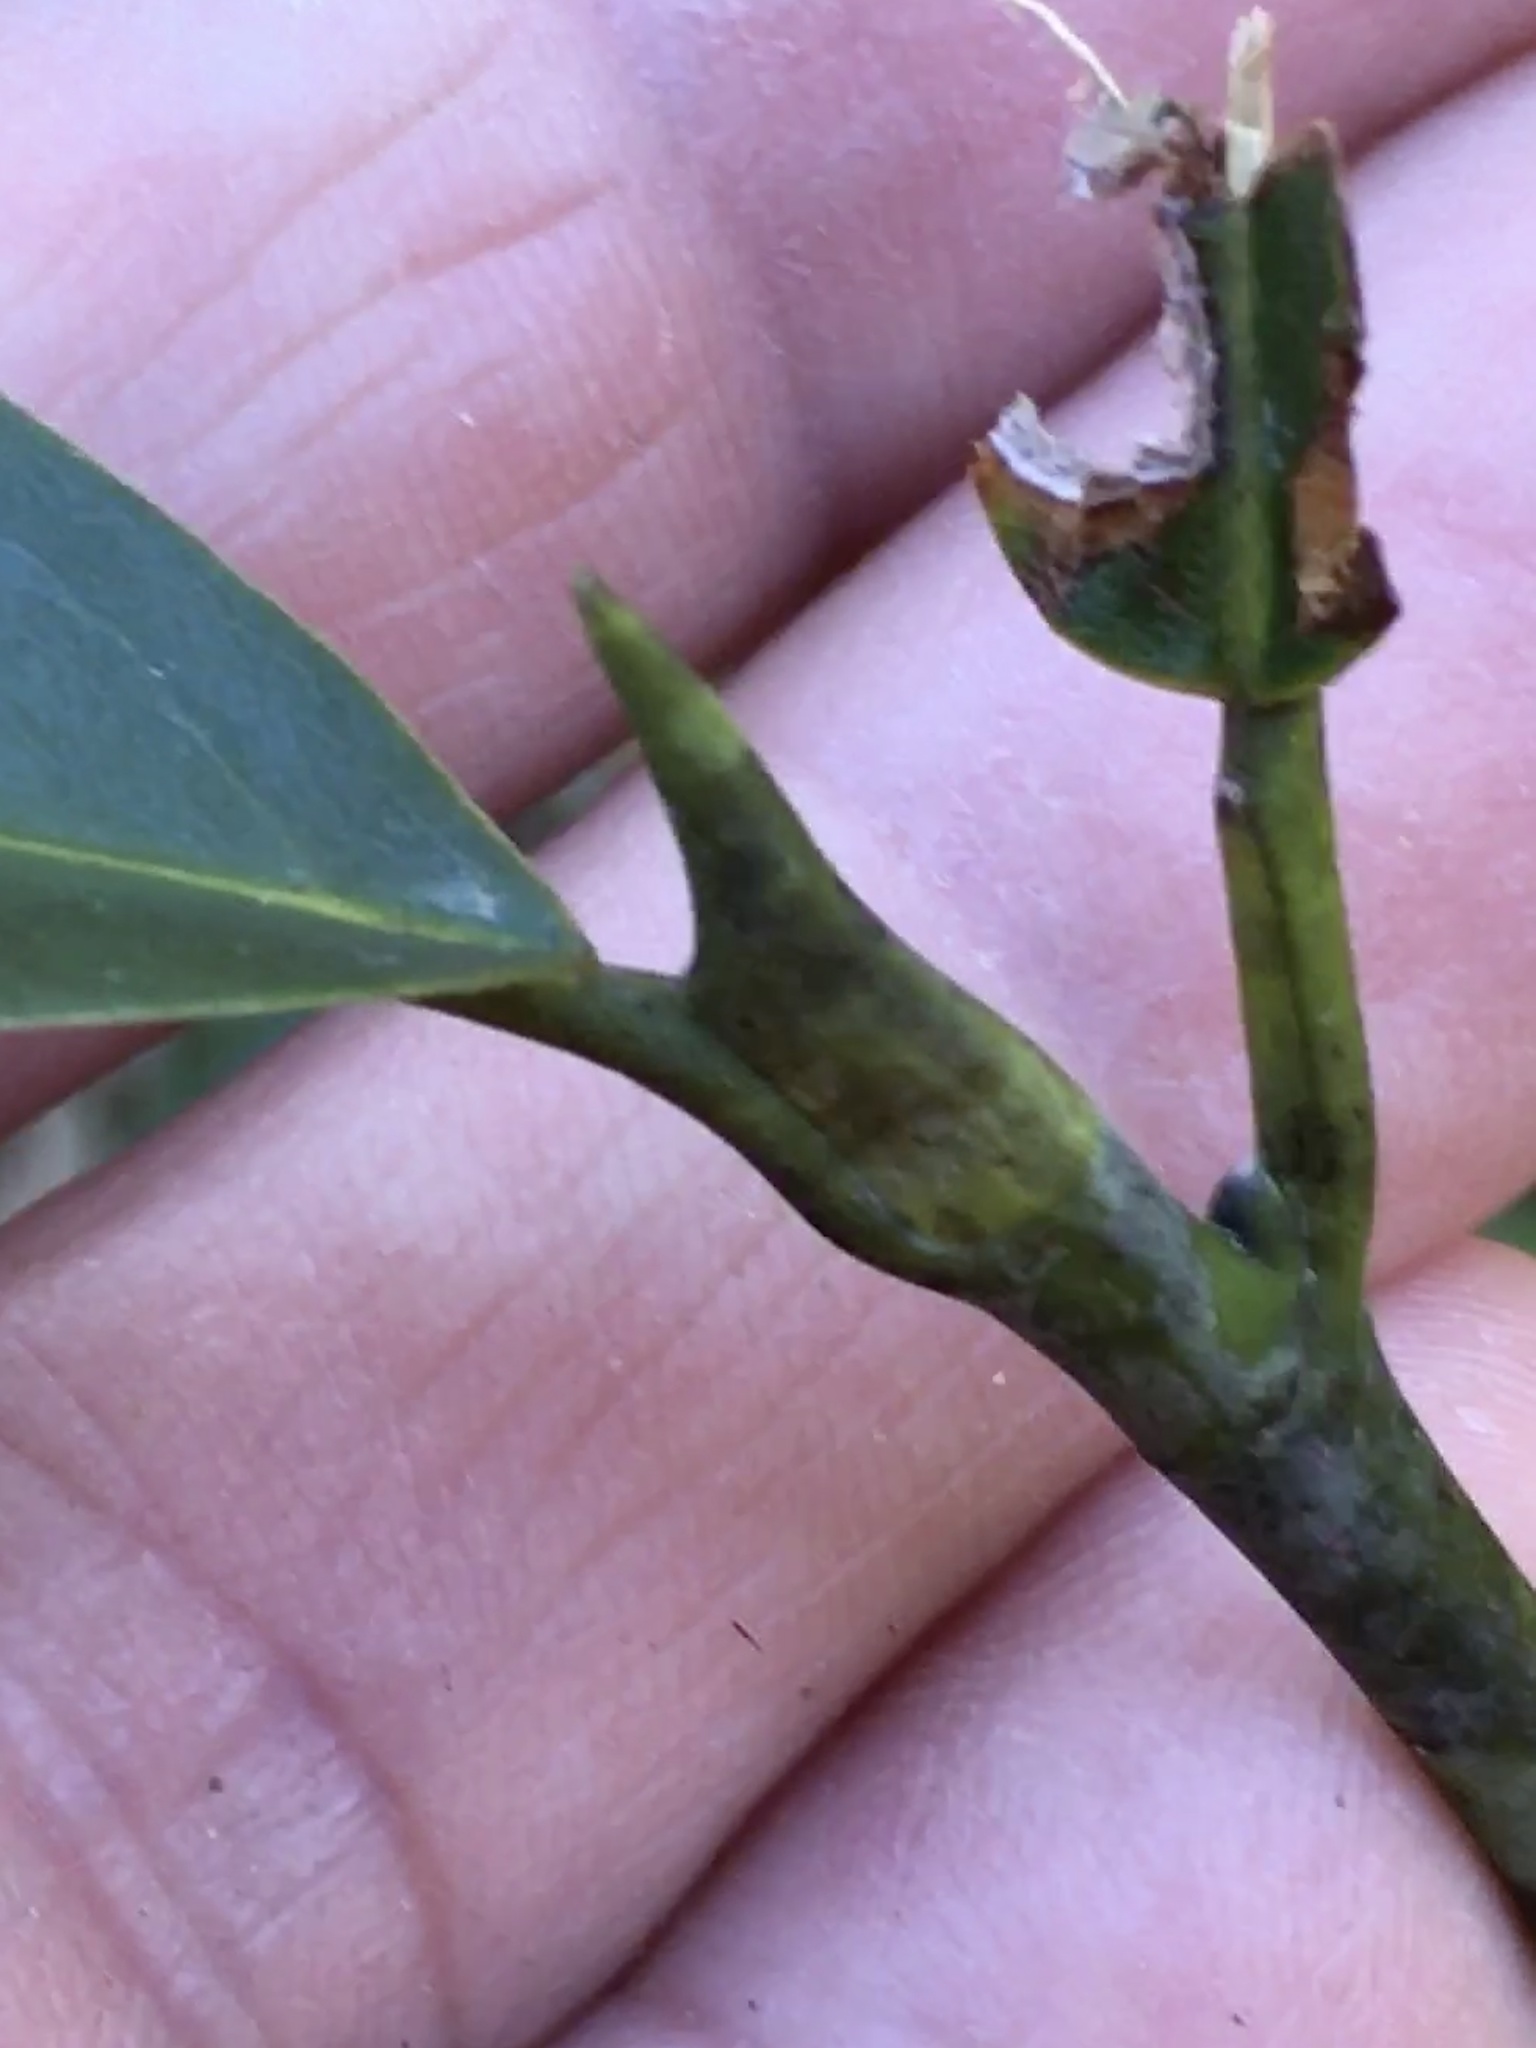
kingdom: Plantae
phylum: Tracheophyta
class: Magnoliopsida
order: Magnoliales
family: Magnoliaceae
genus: Magnolia
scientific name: Magnolia virginiana
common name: Swamp bay
